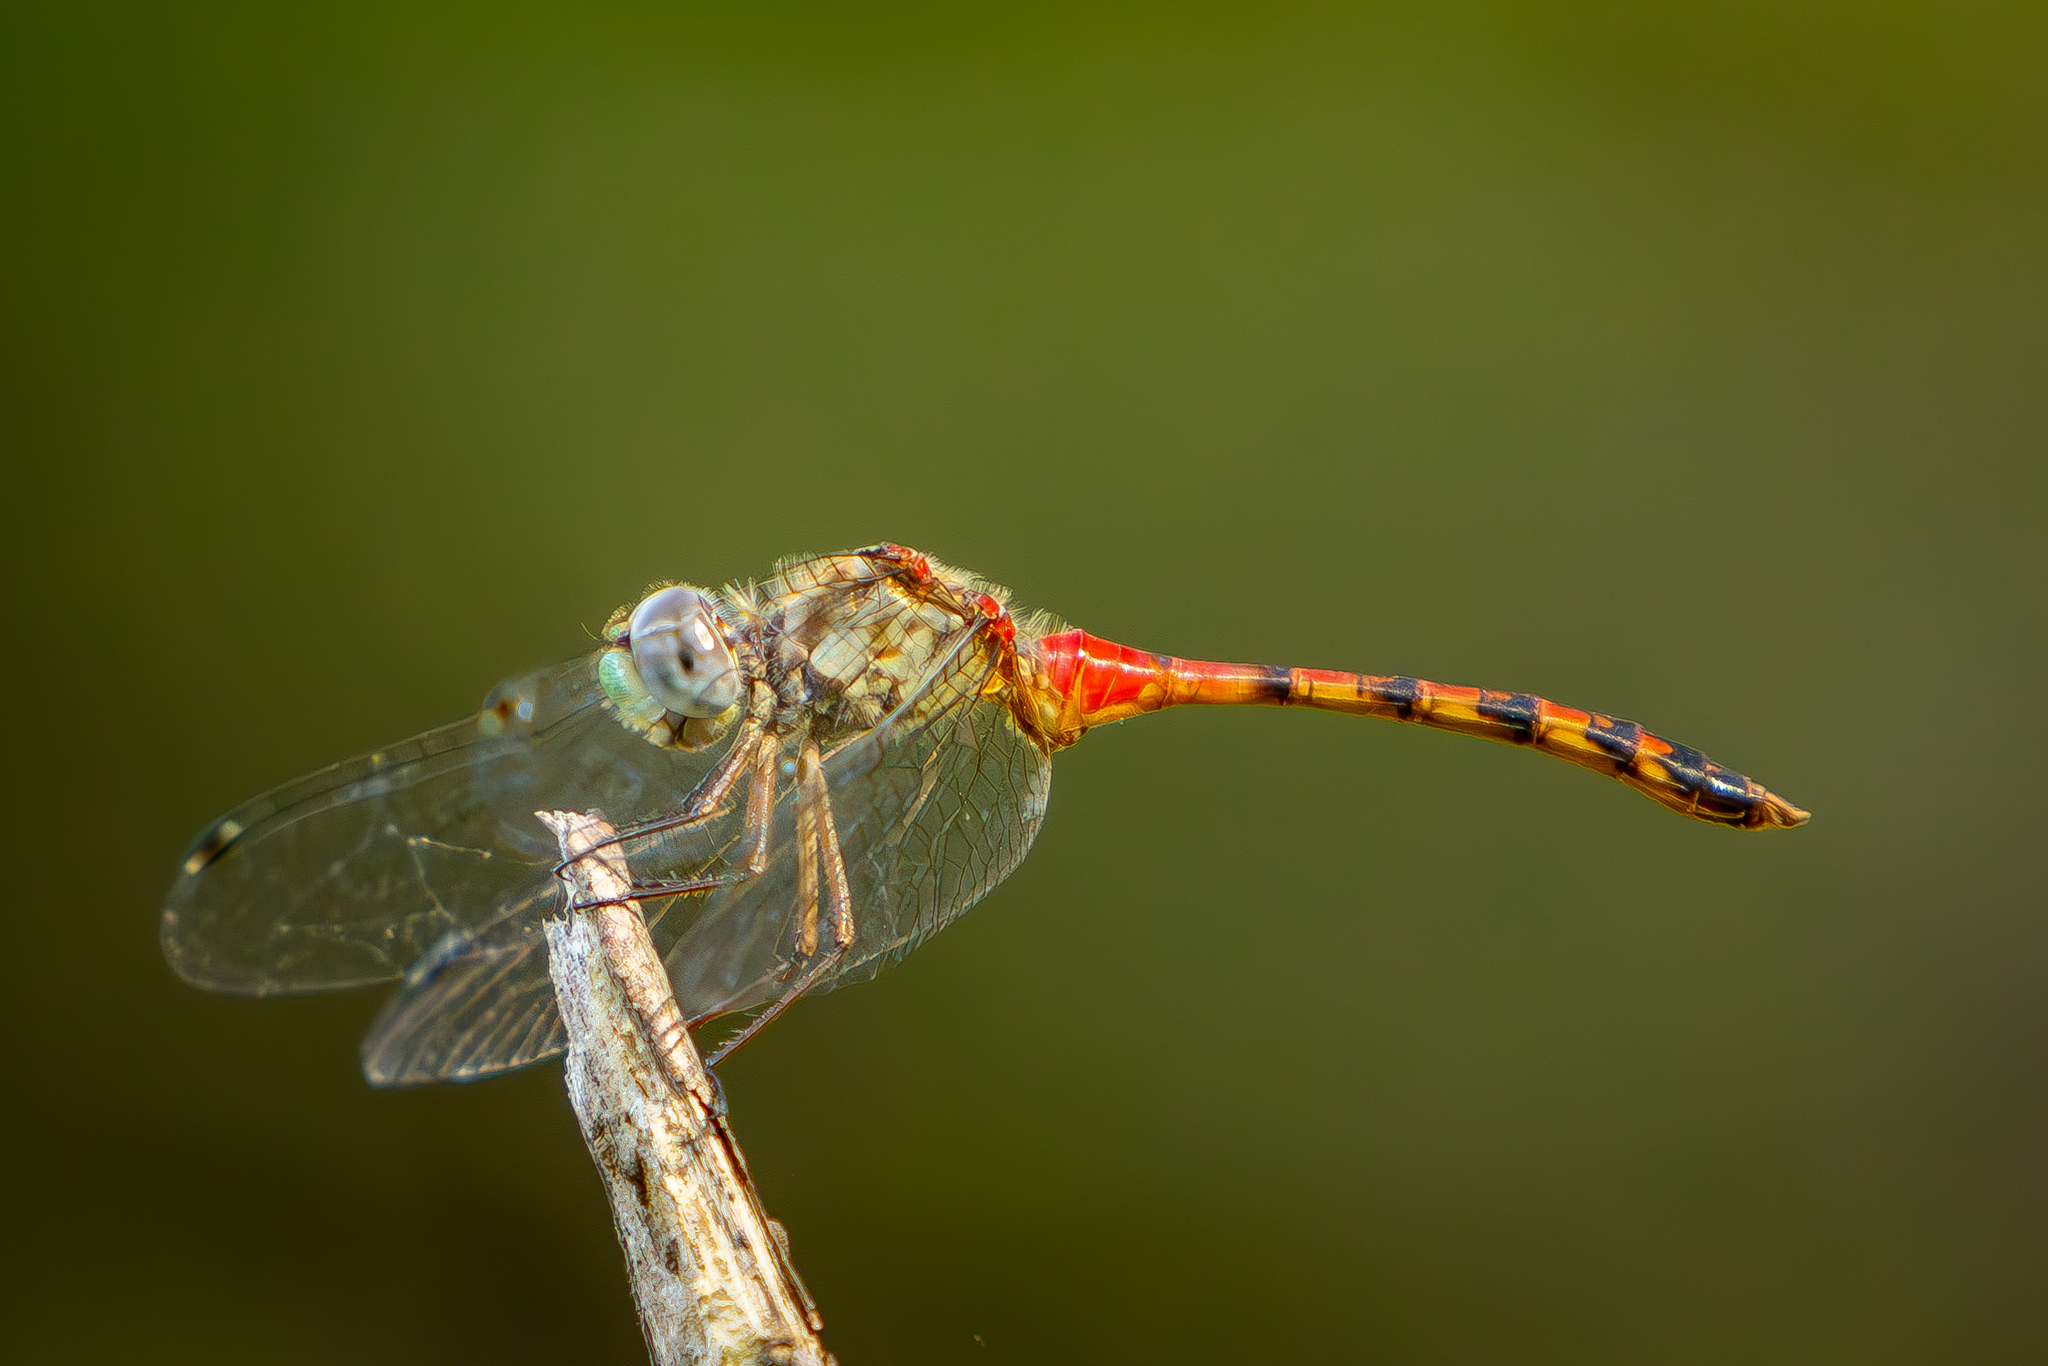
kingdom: Animalia
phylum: Arthropoda
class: Insecta
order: Odonata
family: Libellulidae
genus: Sympetrum
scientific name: Sympetrum ambiguum
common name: Blue-faced meadowhawk
